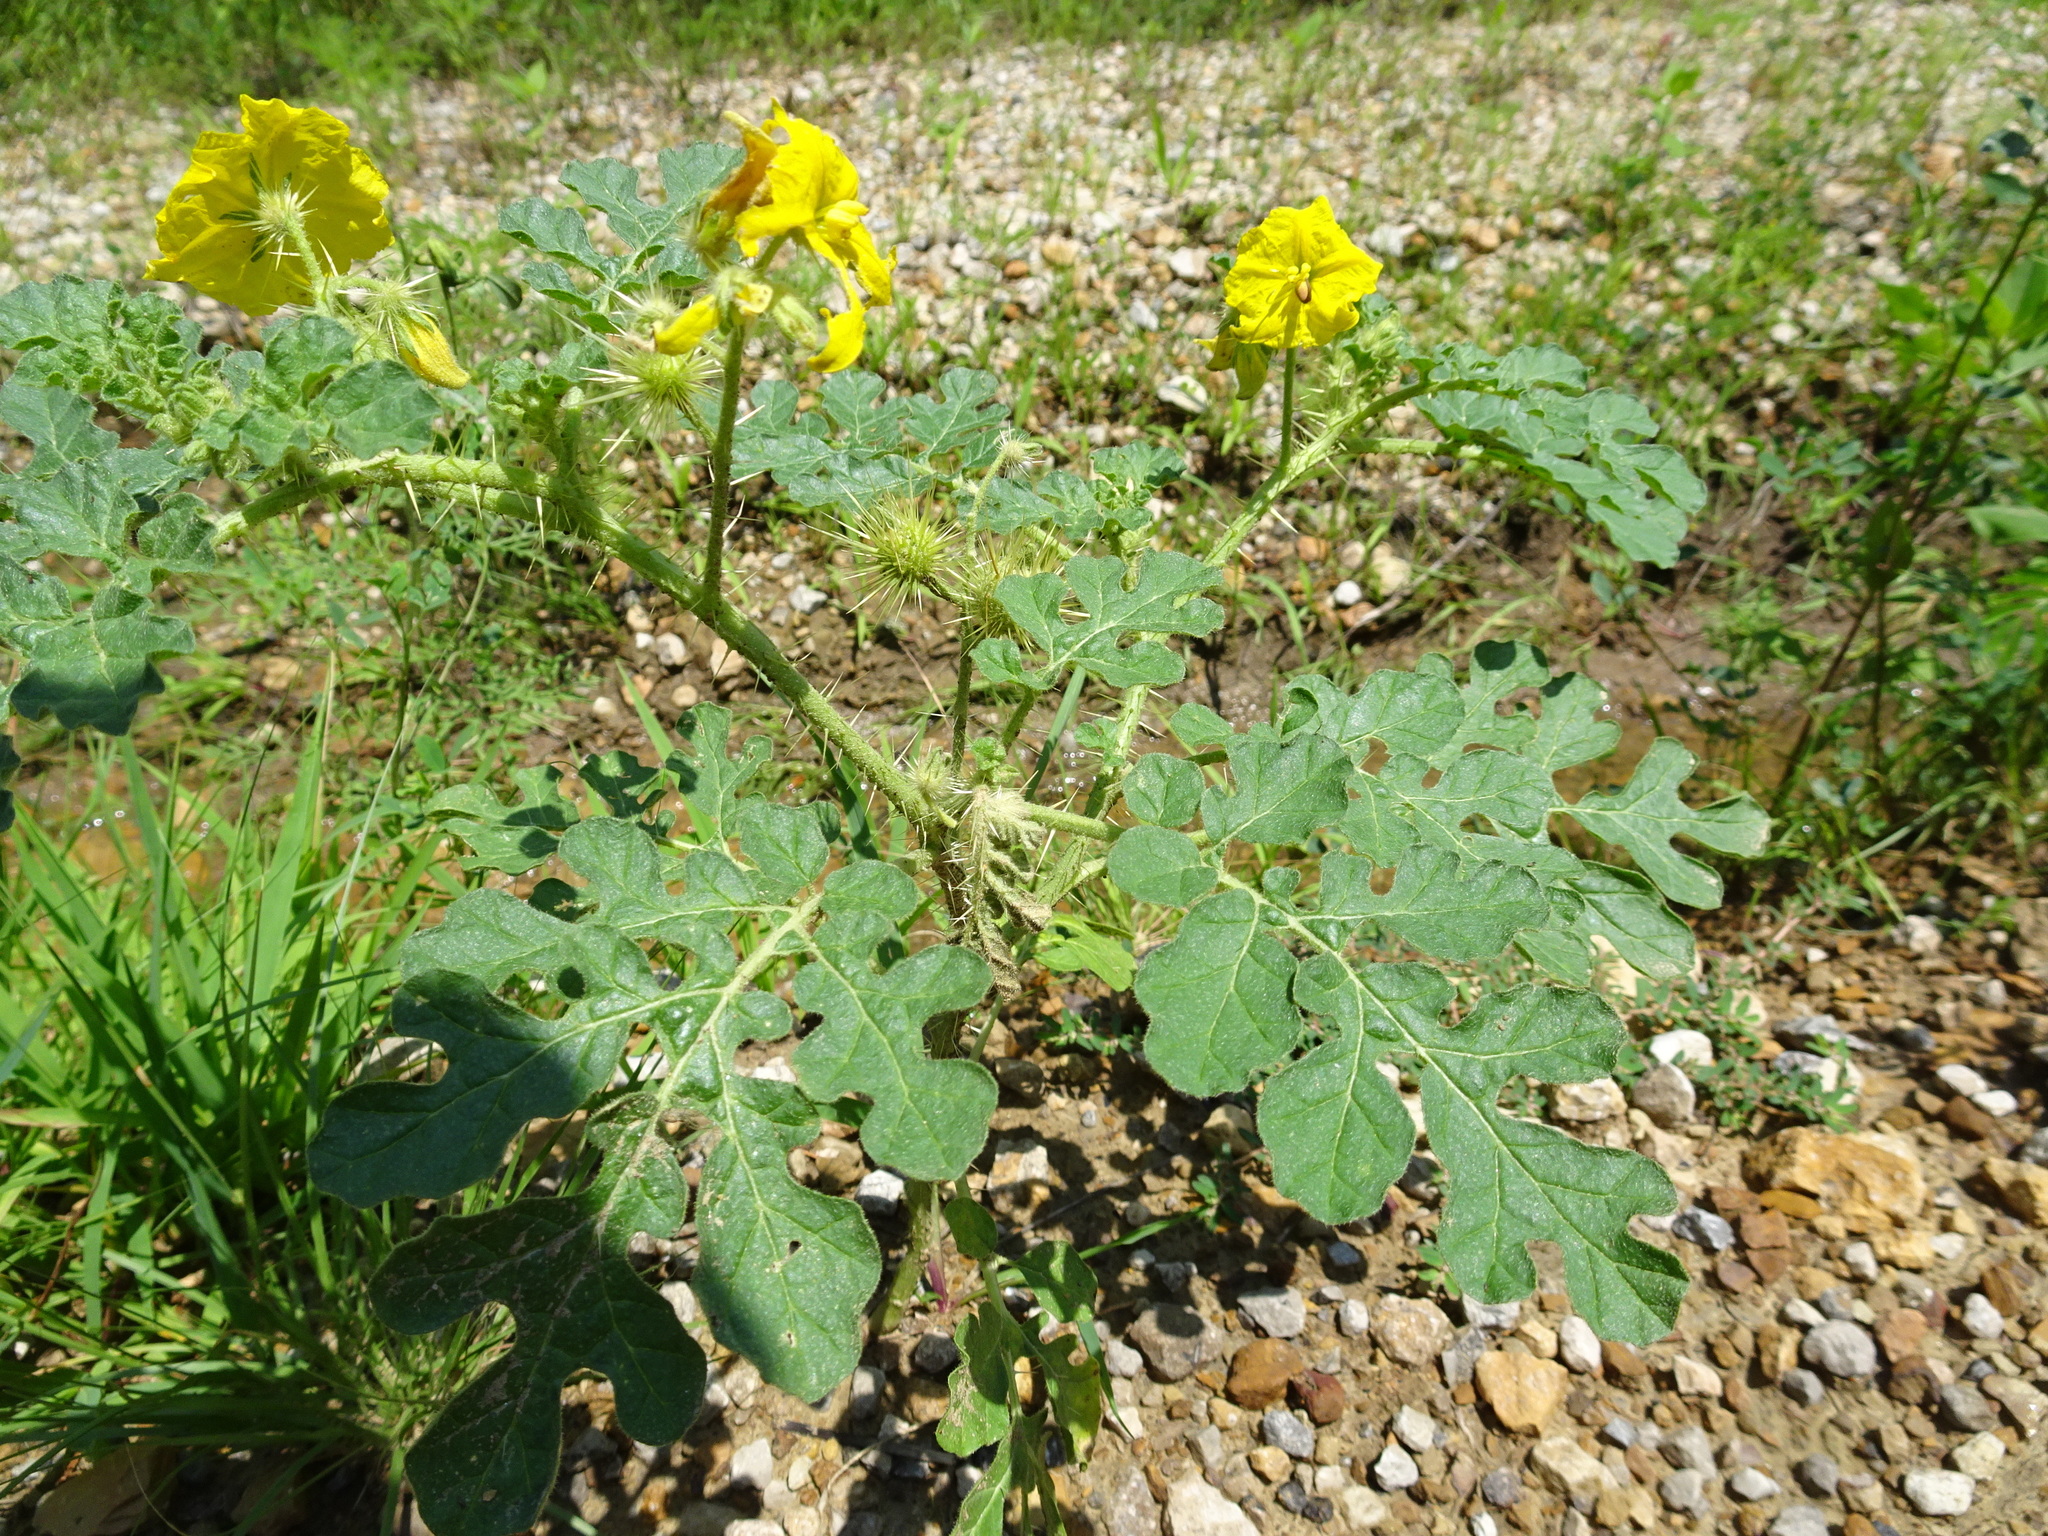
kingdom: Plantae
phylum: Tracheophyta
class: Magnoliopsida
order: Solanales
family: Solanaceae
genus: Solanum
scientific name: Solanum angustifolium
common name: Buffalobur nightshade
